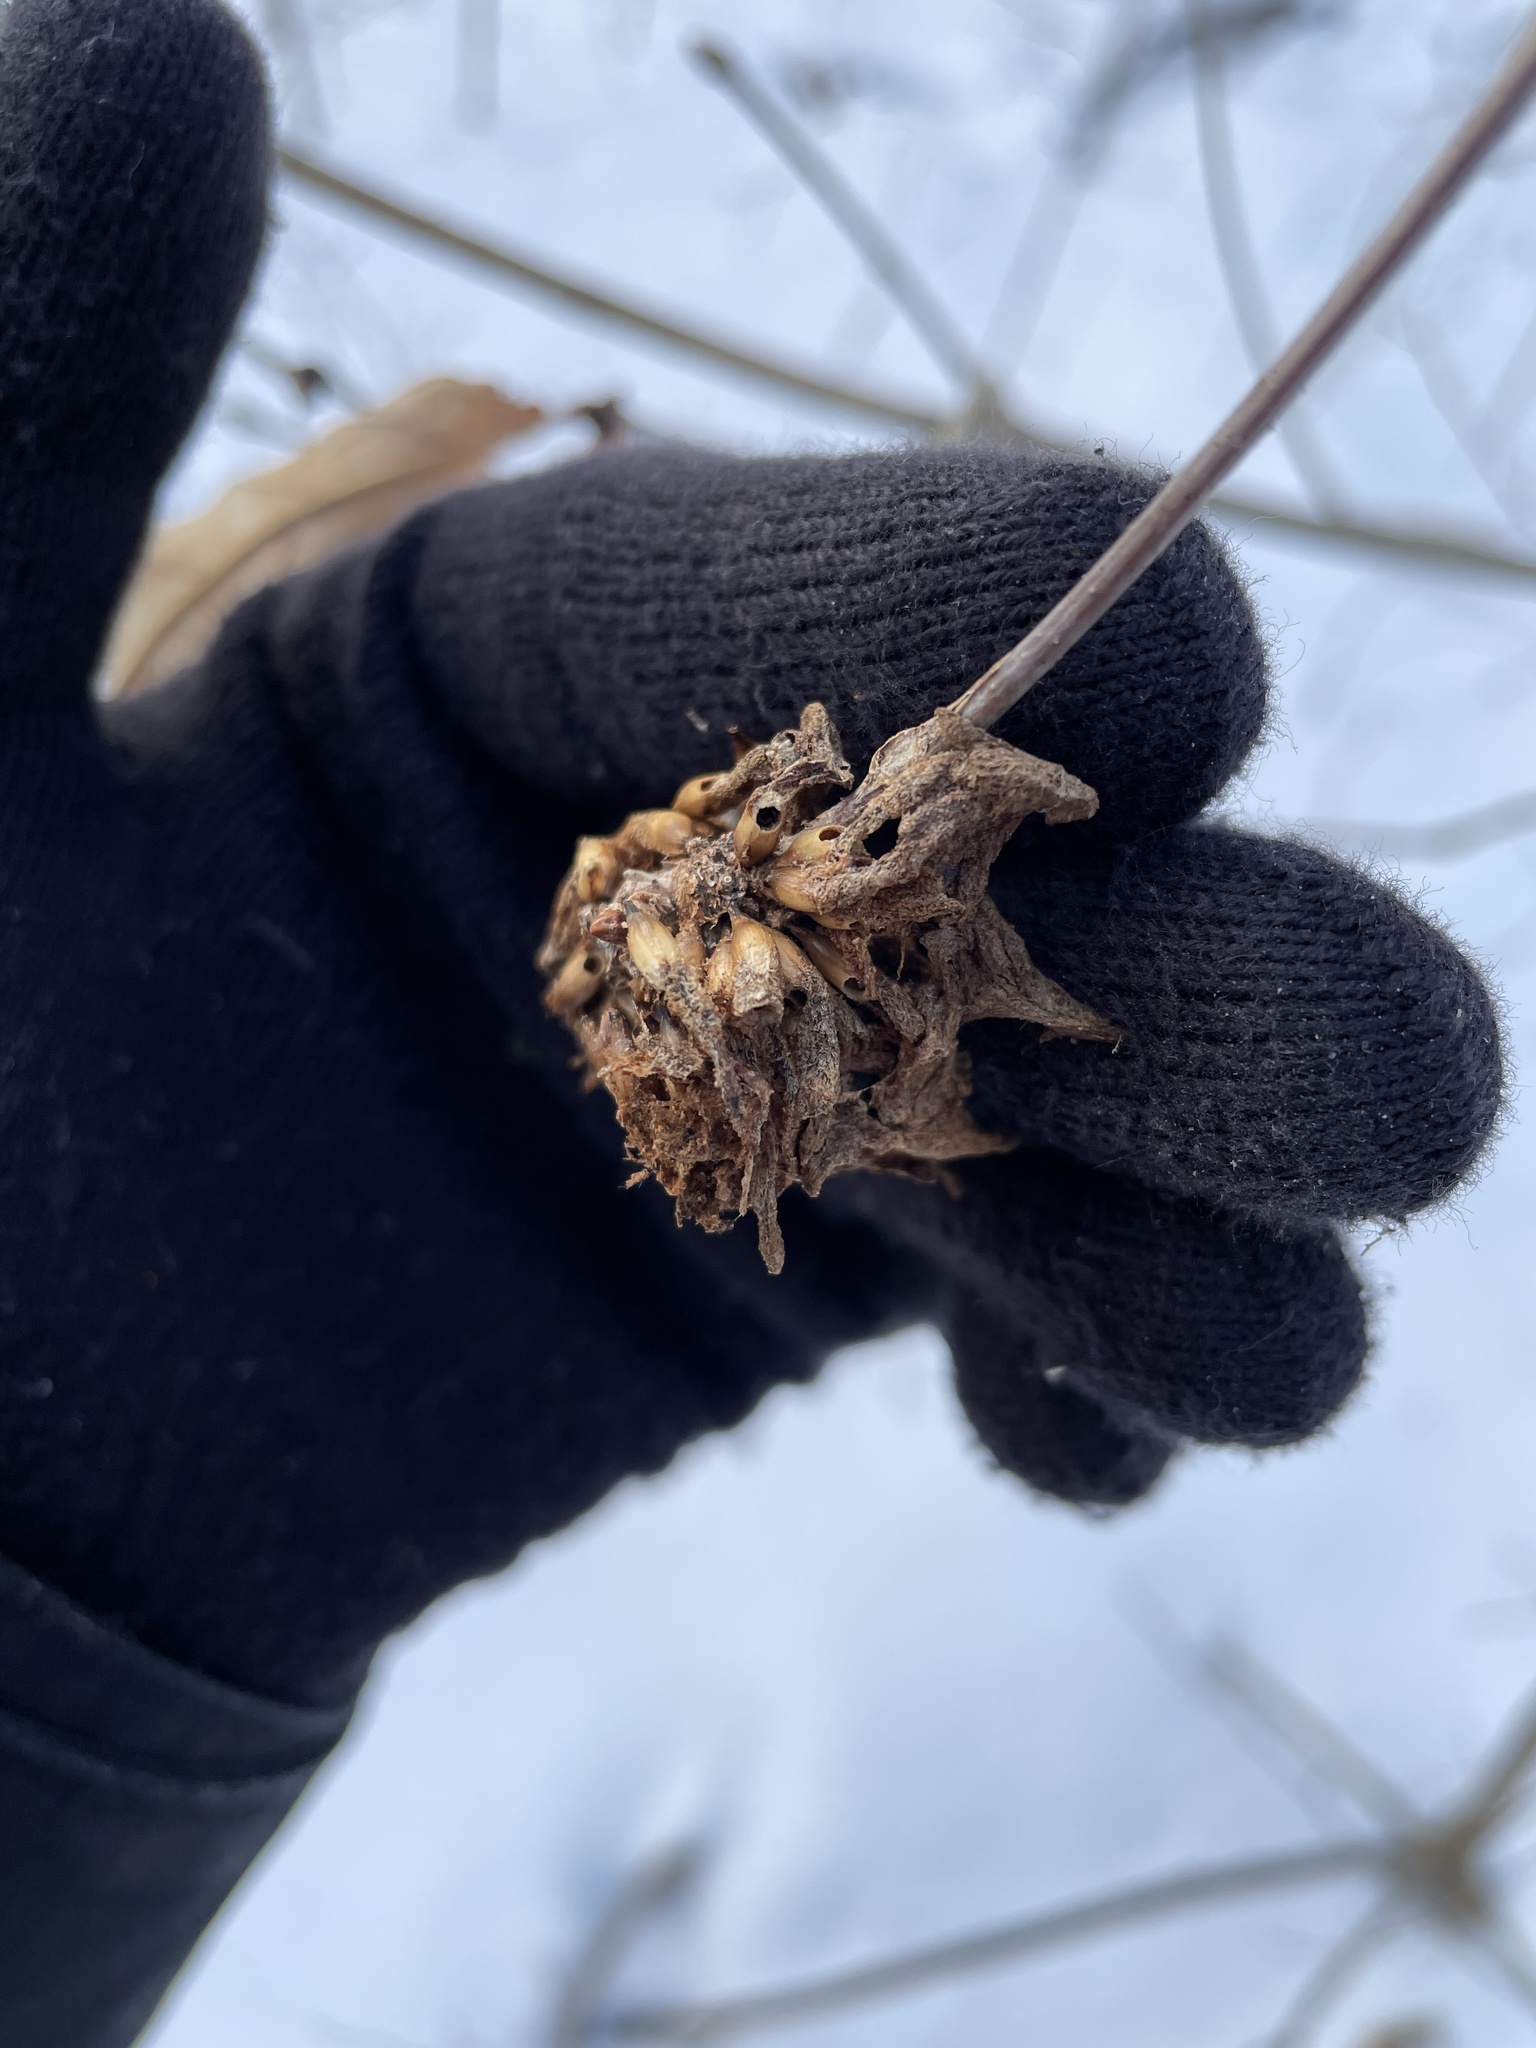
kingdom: Animalia
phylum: Arthropoda
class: Insecta
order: Hymenoptera
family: Cynipidae
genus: Callirhytis
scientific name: Callirhytis
